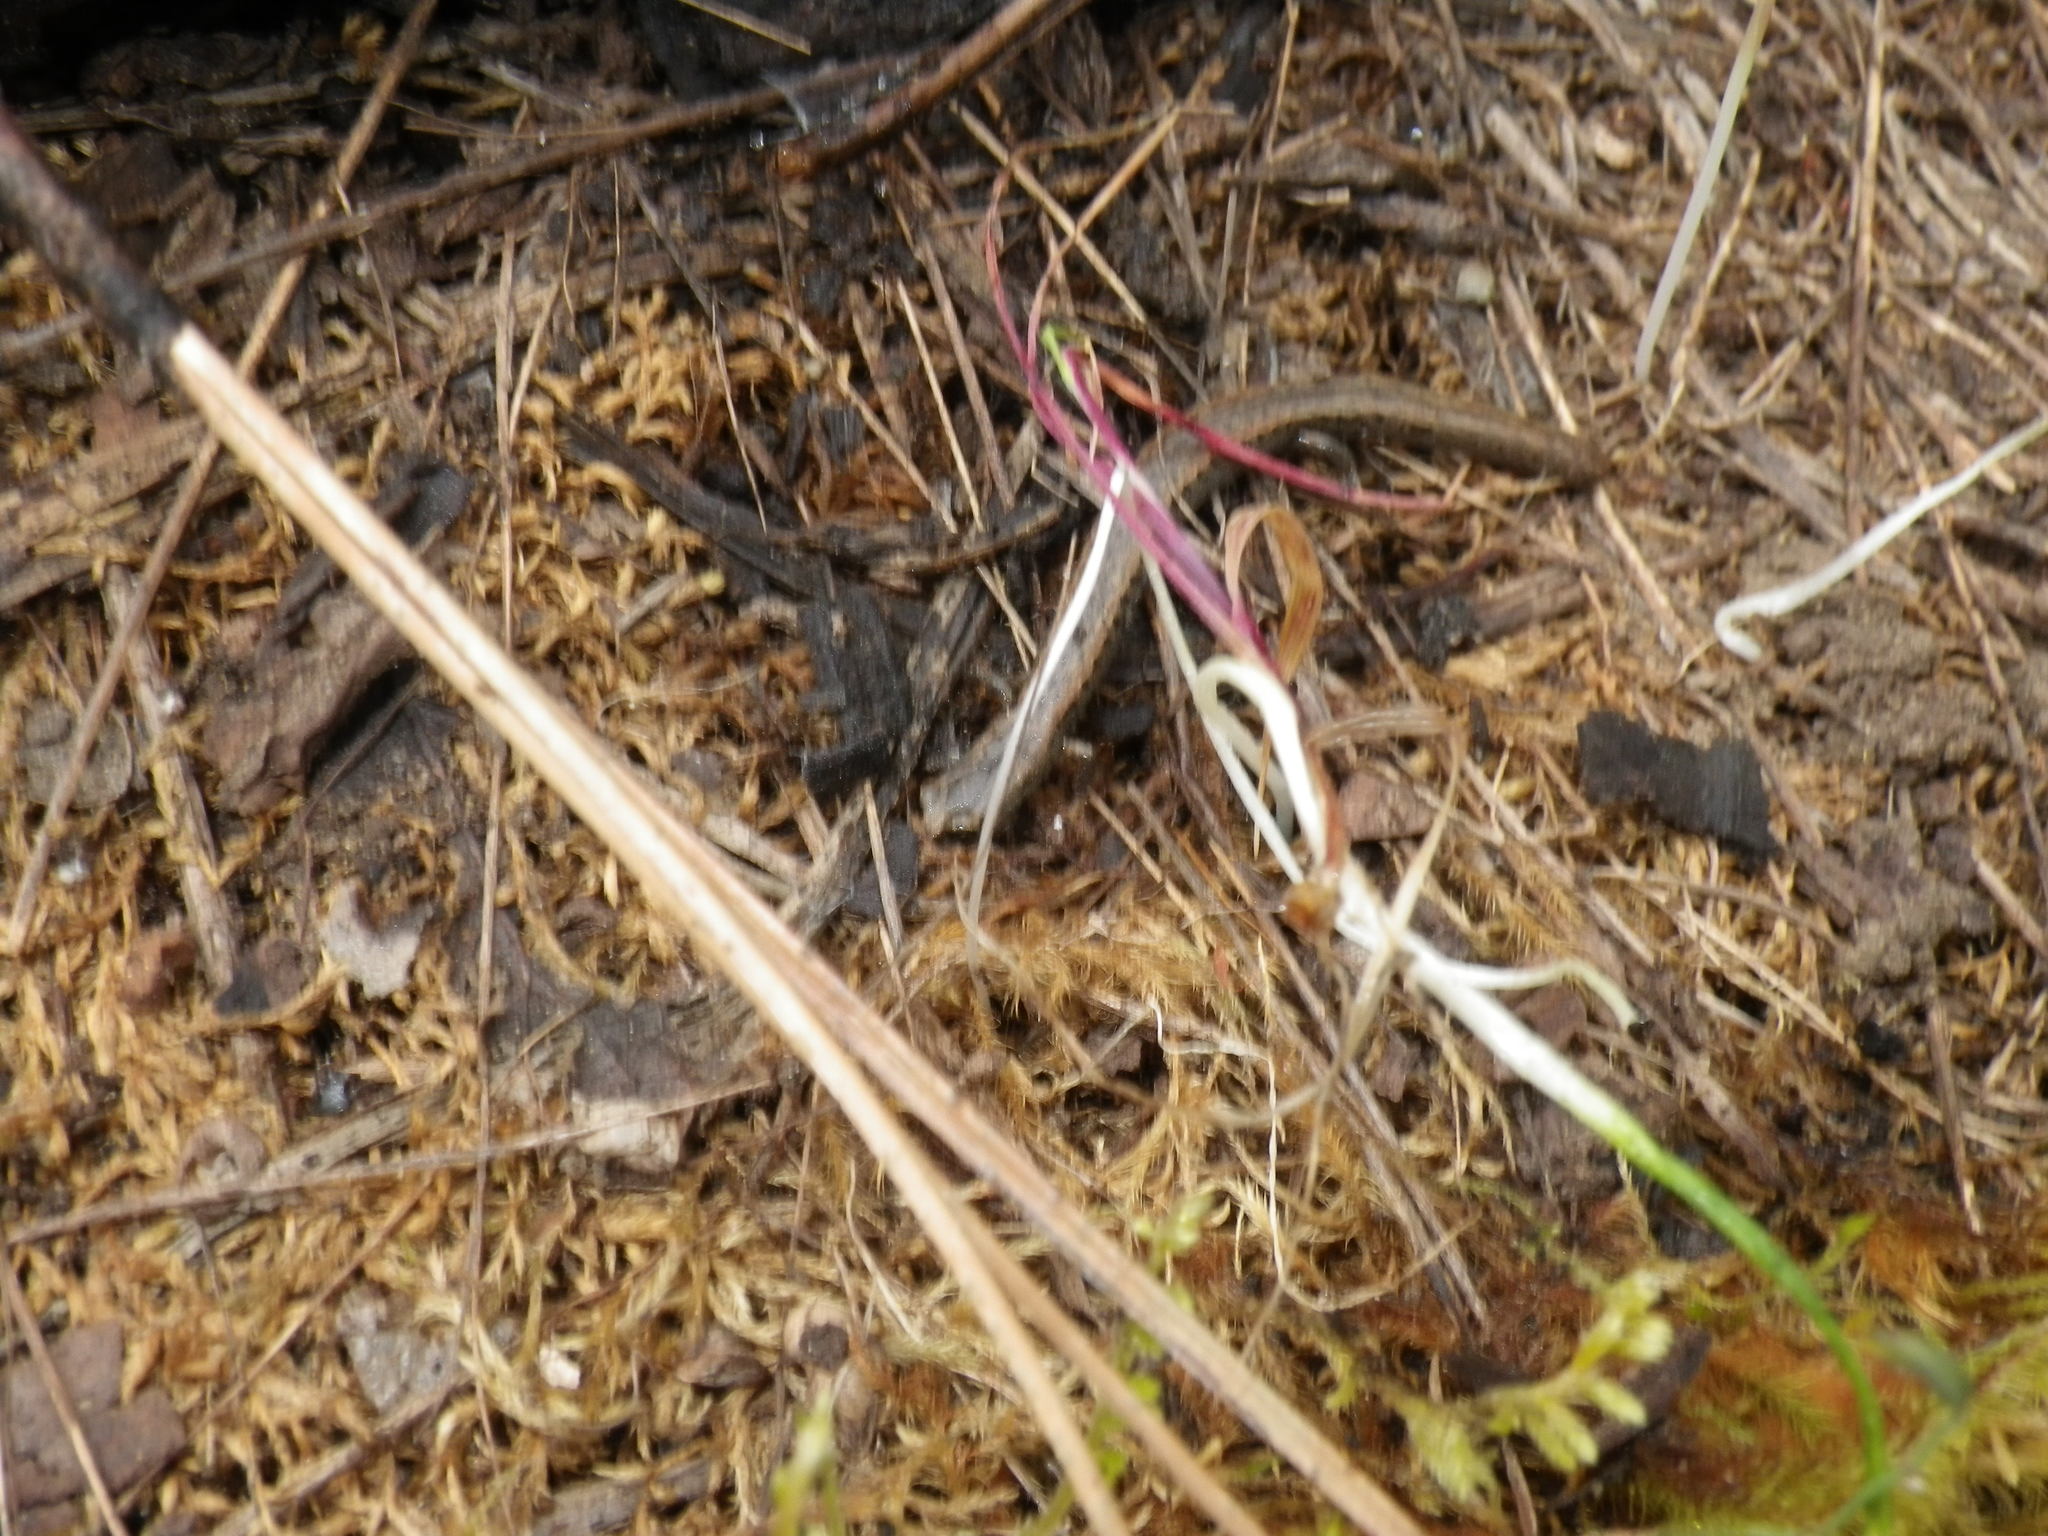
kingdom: Animalia
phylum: Chordata
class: Amphibia
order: Caudata
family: Plethodontidae
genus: Batrachoseps
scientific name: Batrachoseps attenuatus
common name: California slender salamander
